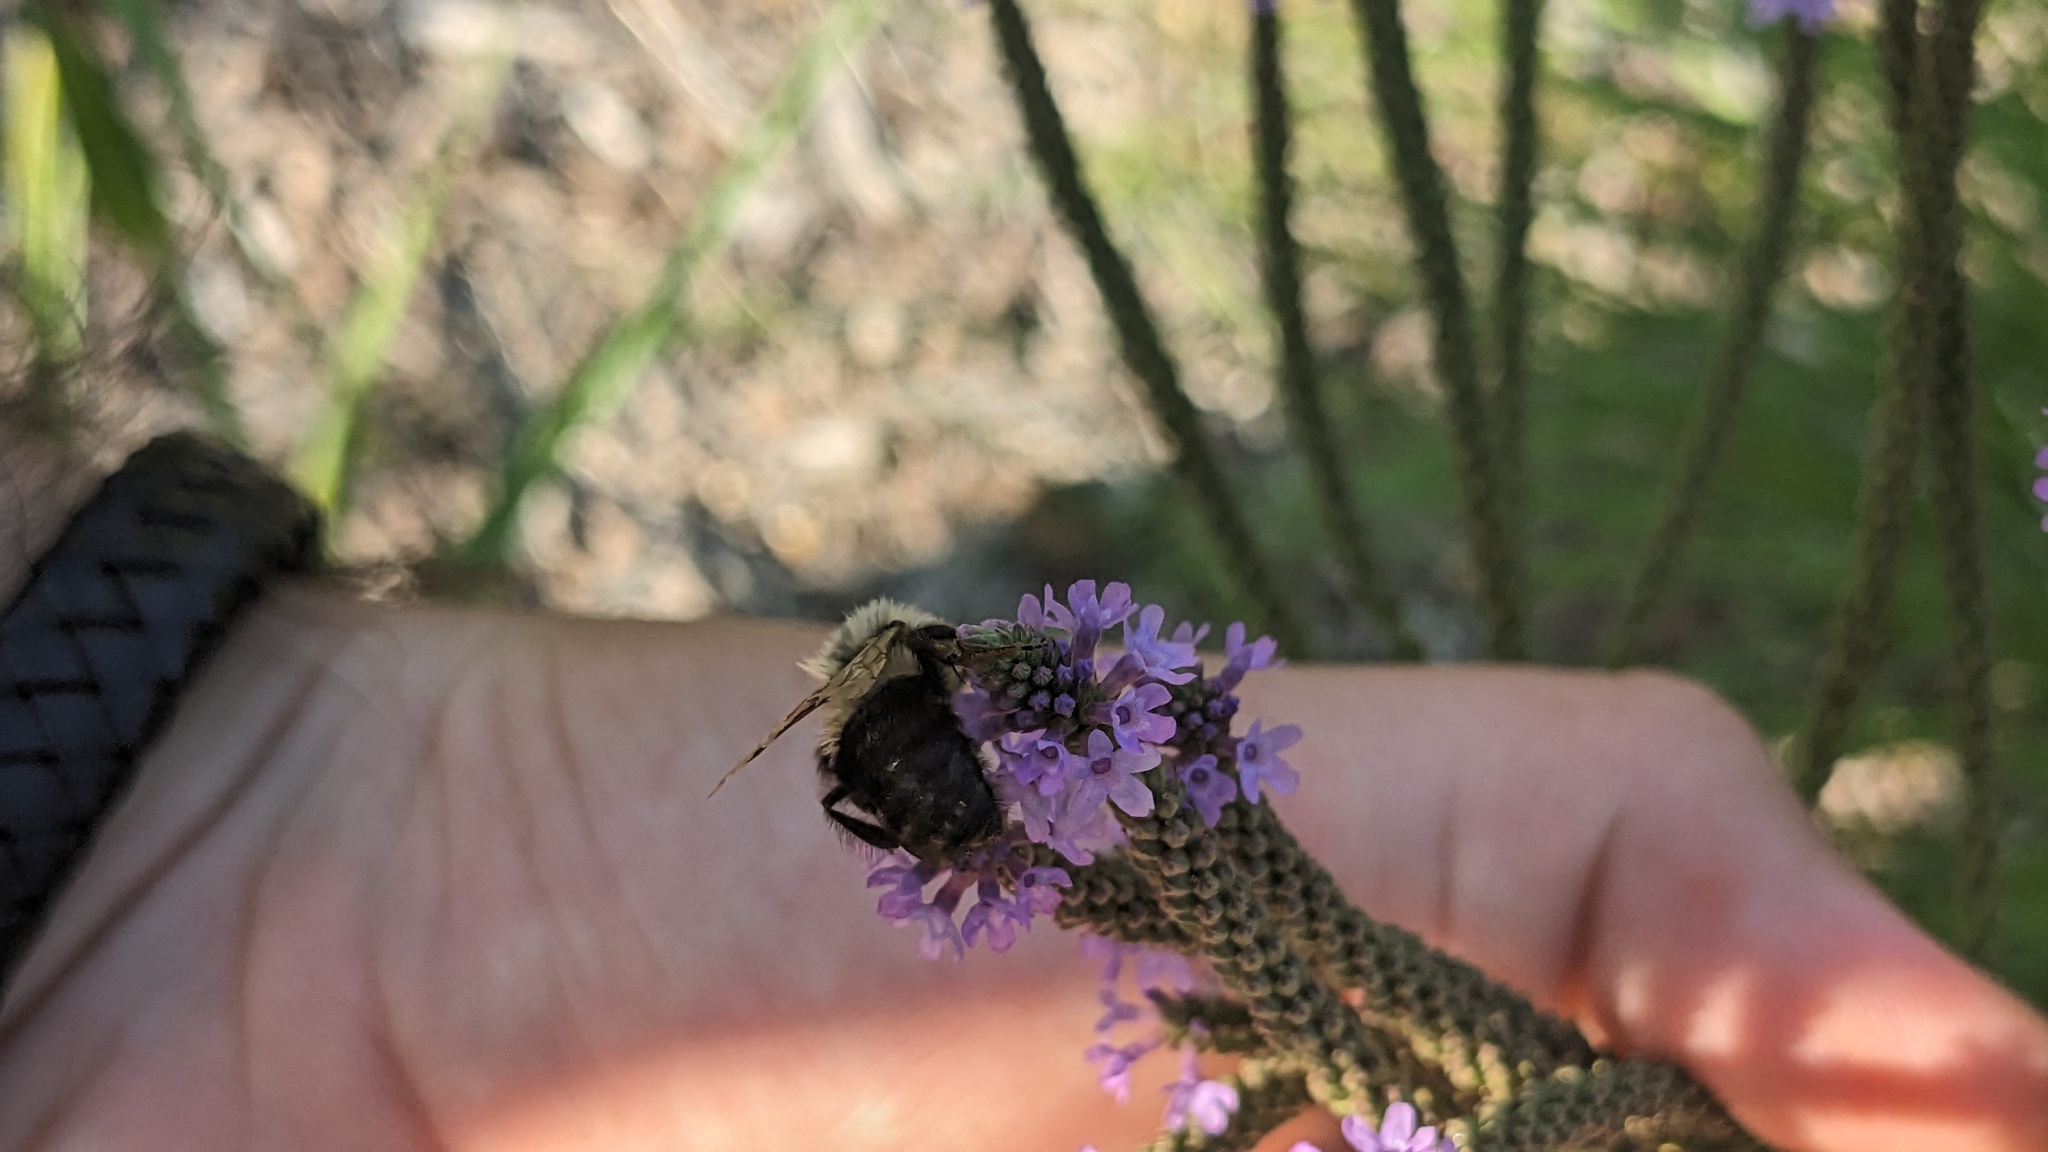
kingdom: Animalia
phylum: Arthropoda
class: Insecta
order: Hymenoptera
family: Apidae
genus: Bombus
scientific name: Bombus impatiens
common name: Common eastern bumble bee
